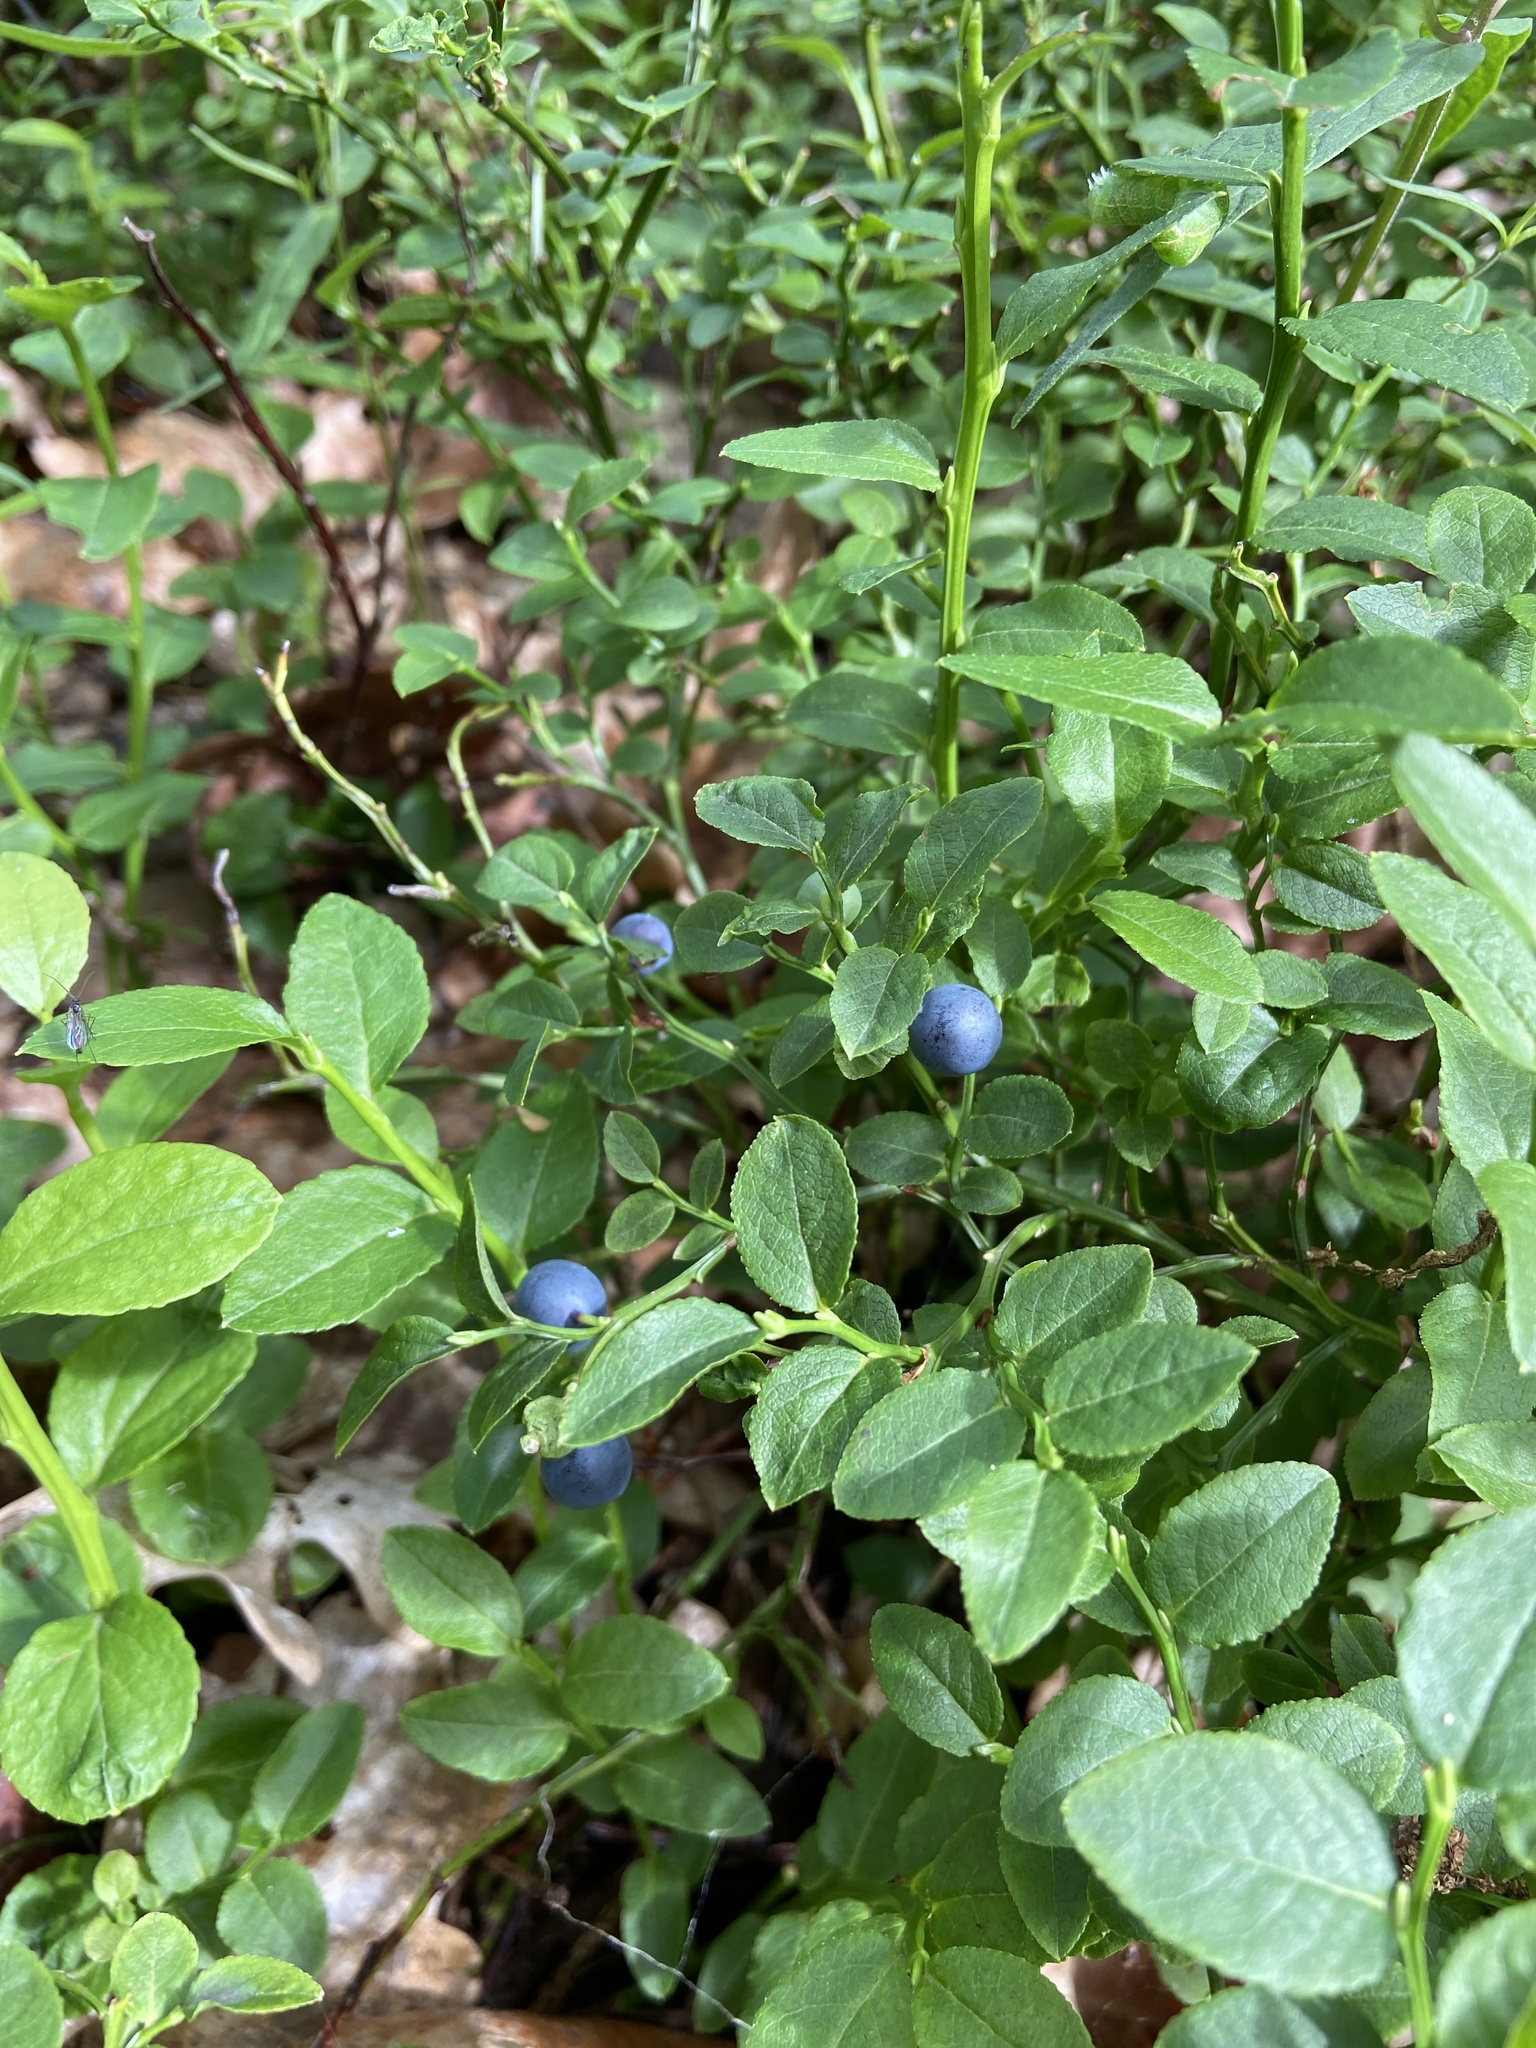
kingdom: Plantae
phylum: Tracheophyta
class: Magnoliopsida
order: Ericales
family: Ericaceae
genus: Vaccinium
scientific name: Vaccinium myrtillus
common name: Bilberry
